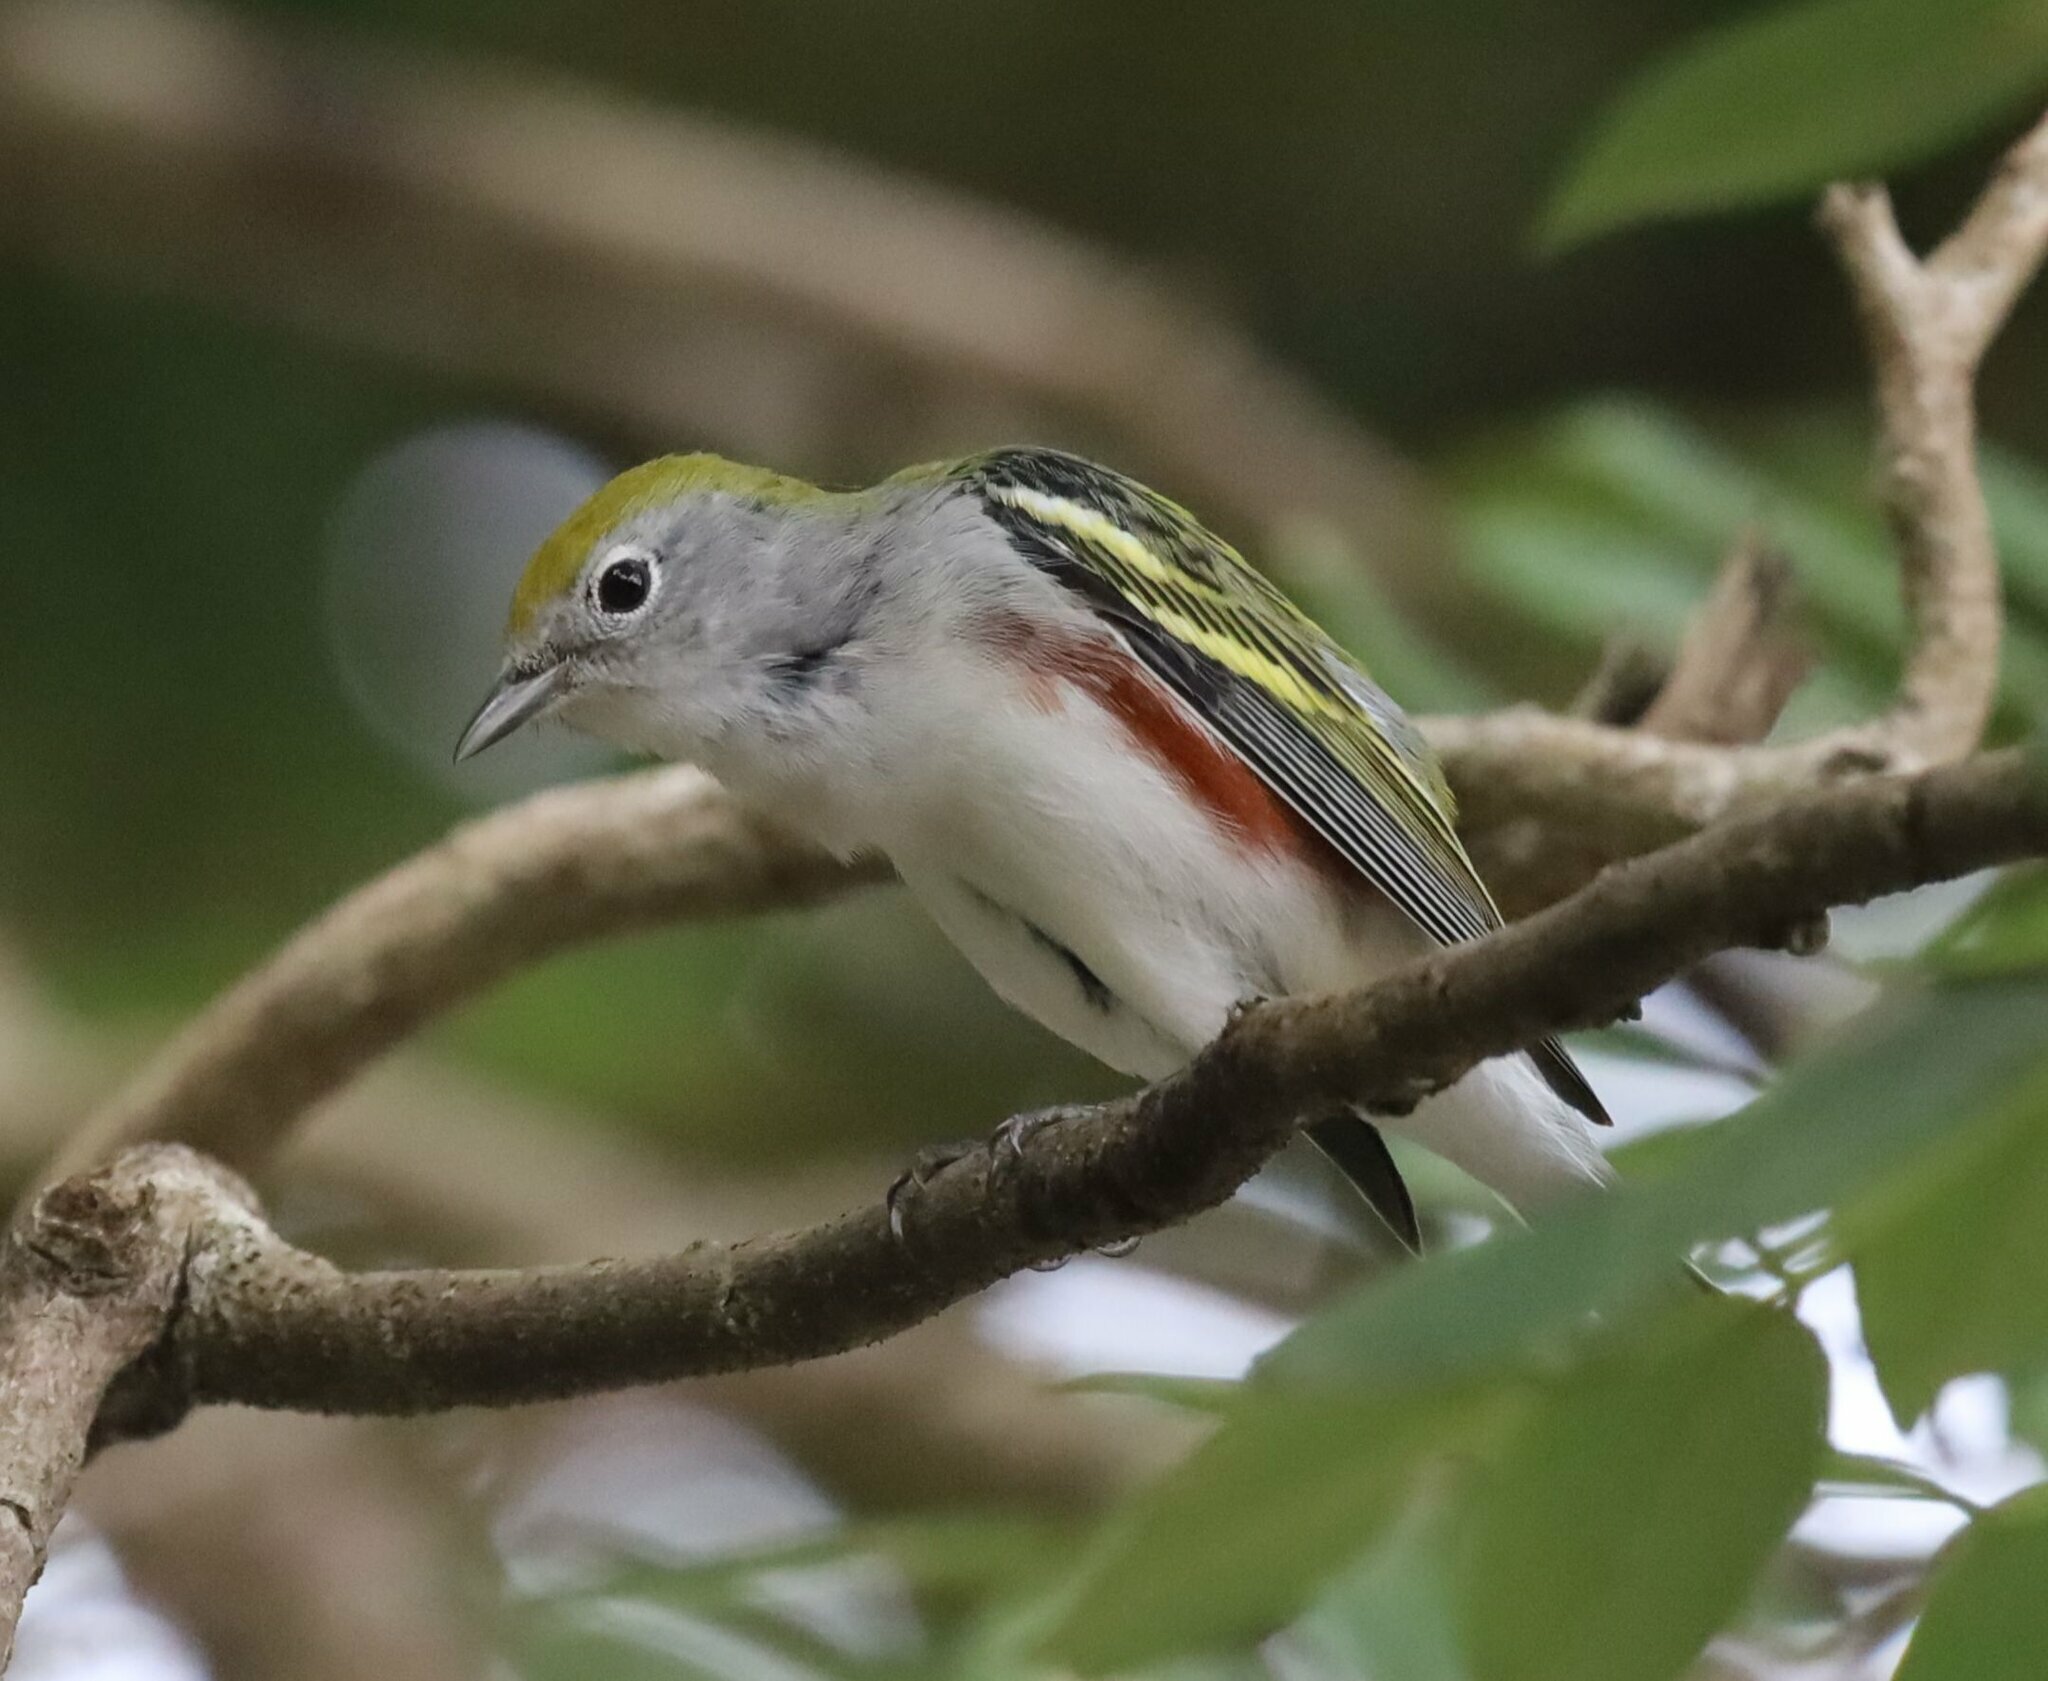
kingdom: Animalia
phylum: Chordata
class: Aves
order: Passeriformes
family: Parulidae
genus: Setophaga
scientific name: Setophaga pensylvanica
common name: Chestnut-sided warbler
